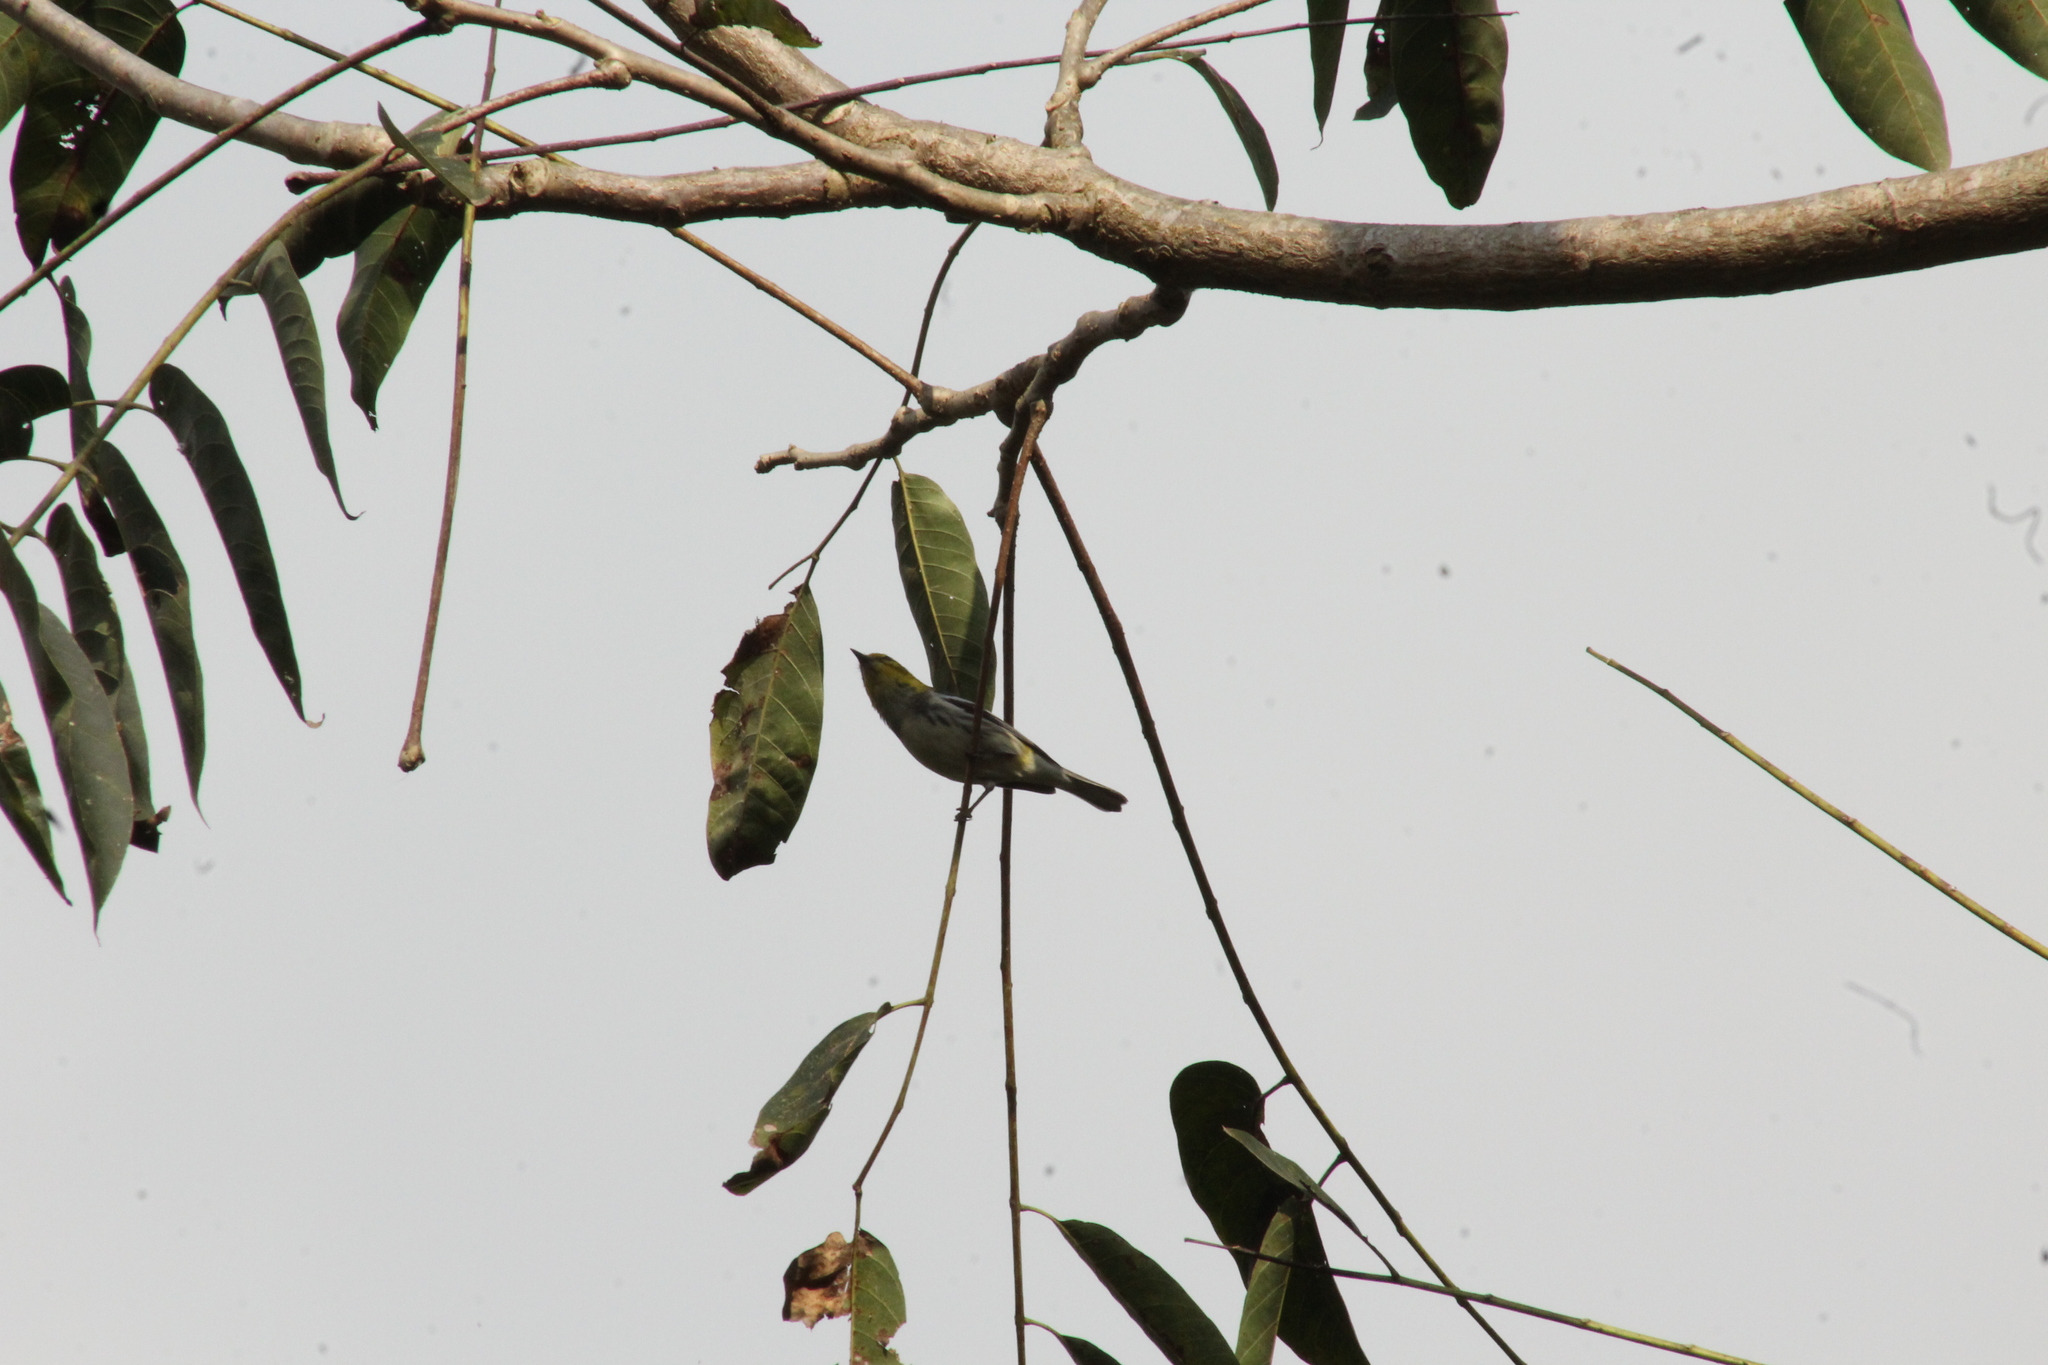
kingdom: Animalia
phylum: Chordata
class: Aves
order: Passeriformes
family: Parulidae
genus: Setophaga
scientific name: Setophaga virens
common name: Black-throated green warbler
